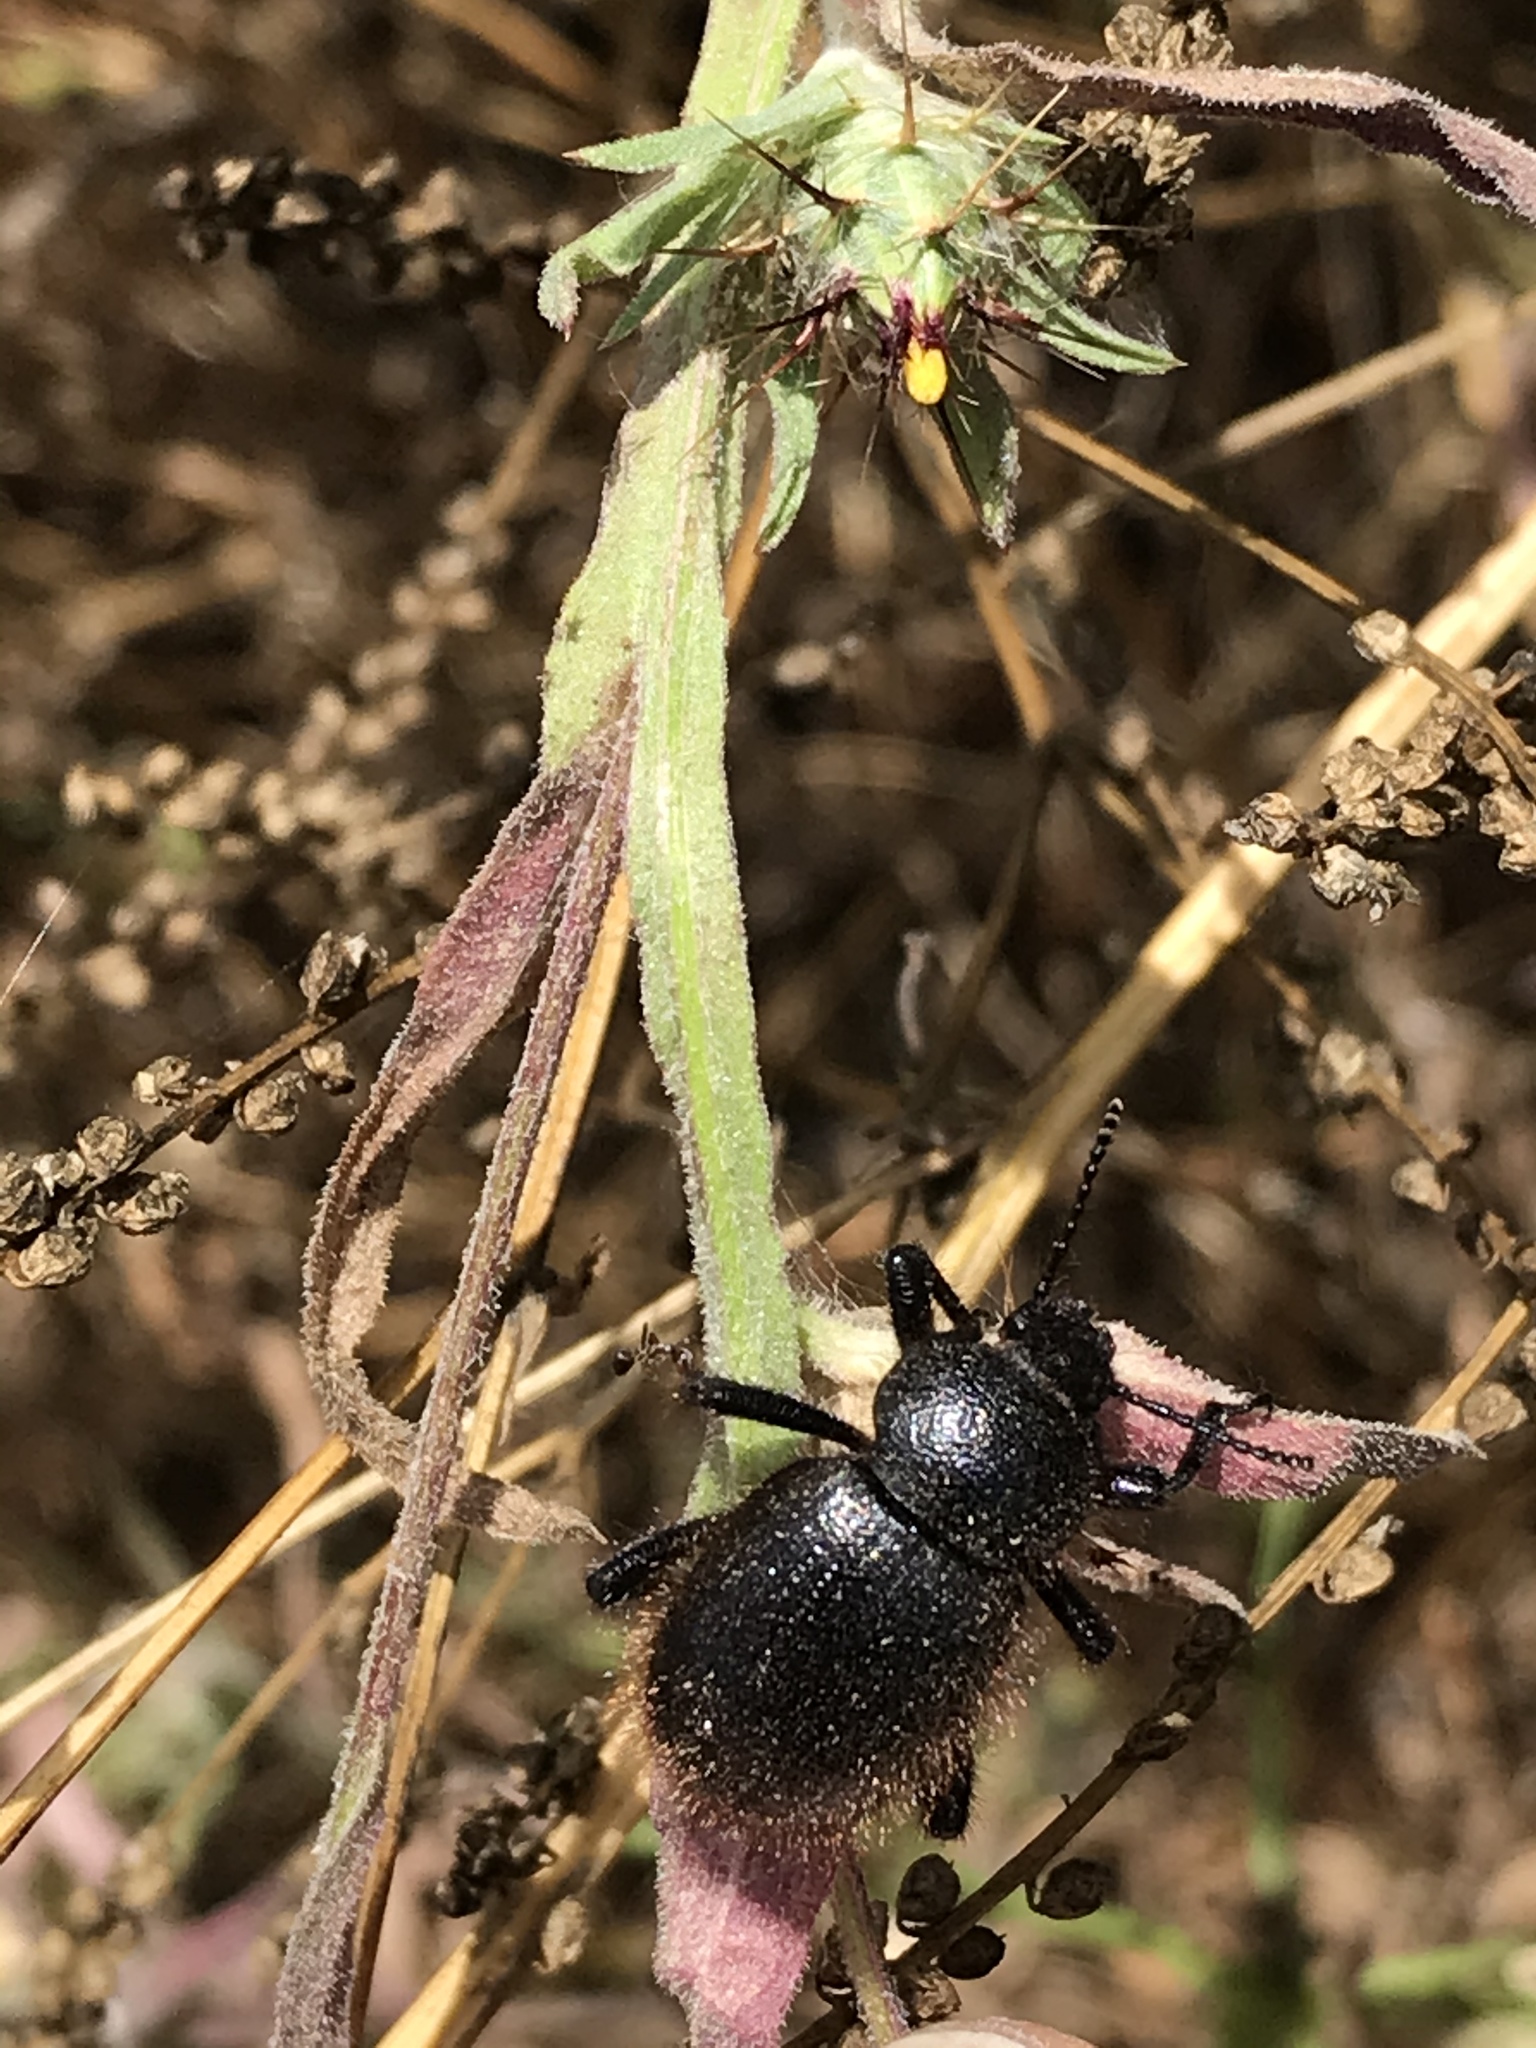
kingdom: Animalia
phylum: Arthropoda
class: Insecta
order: Coleoptera
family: Tenebrionidae
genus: Eleodes
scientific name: Eleodes osculans
